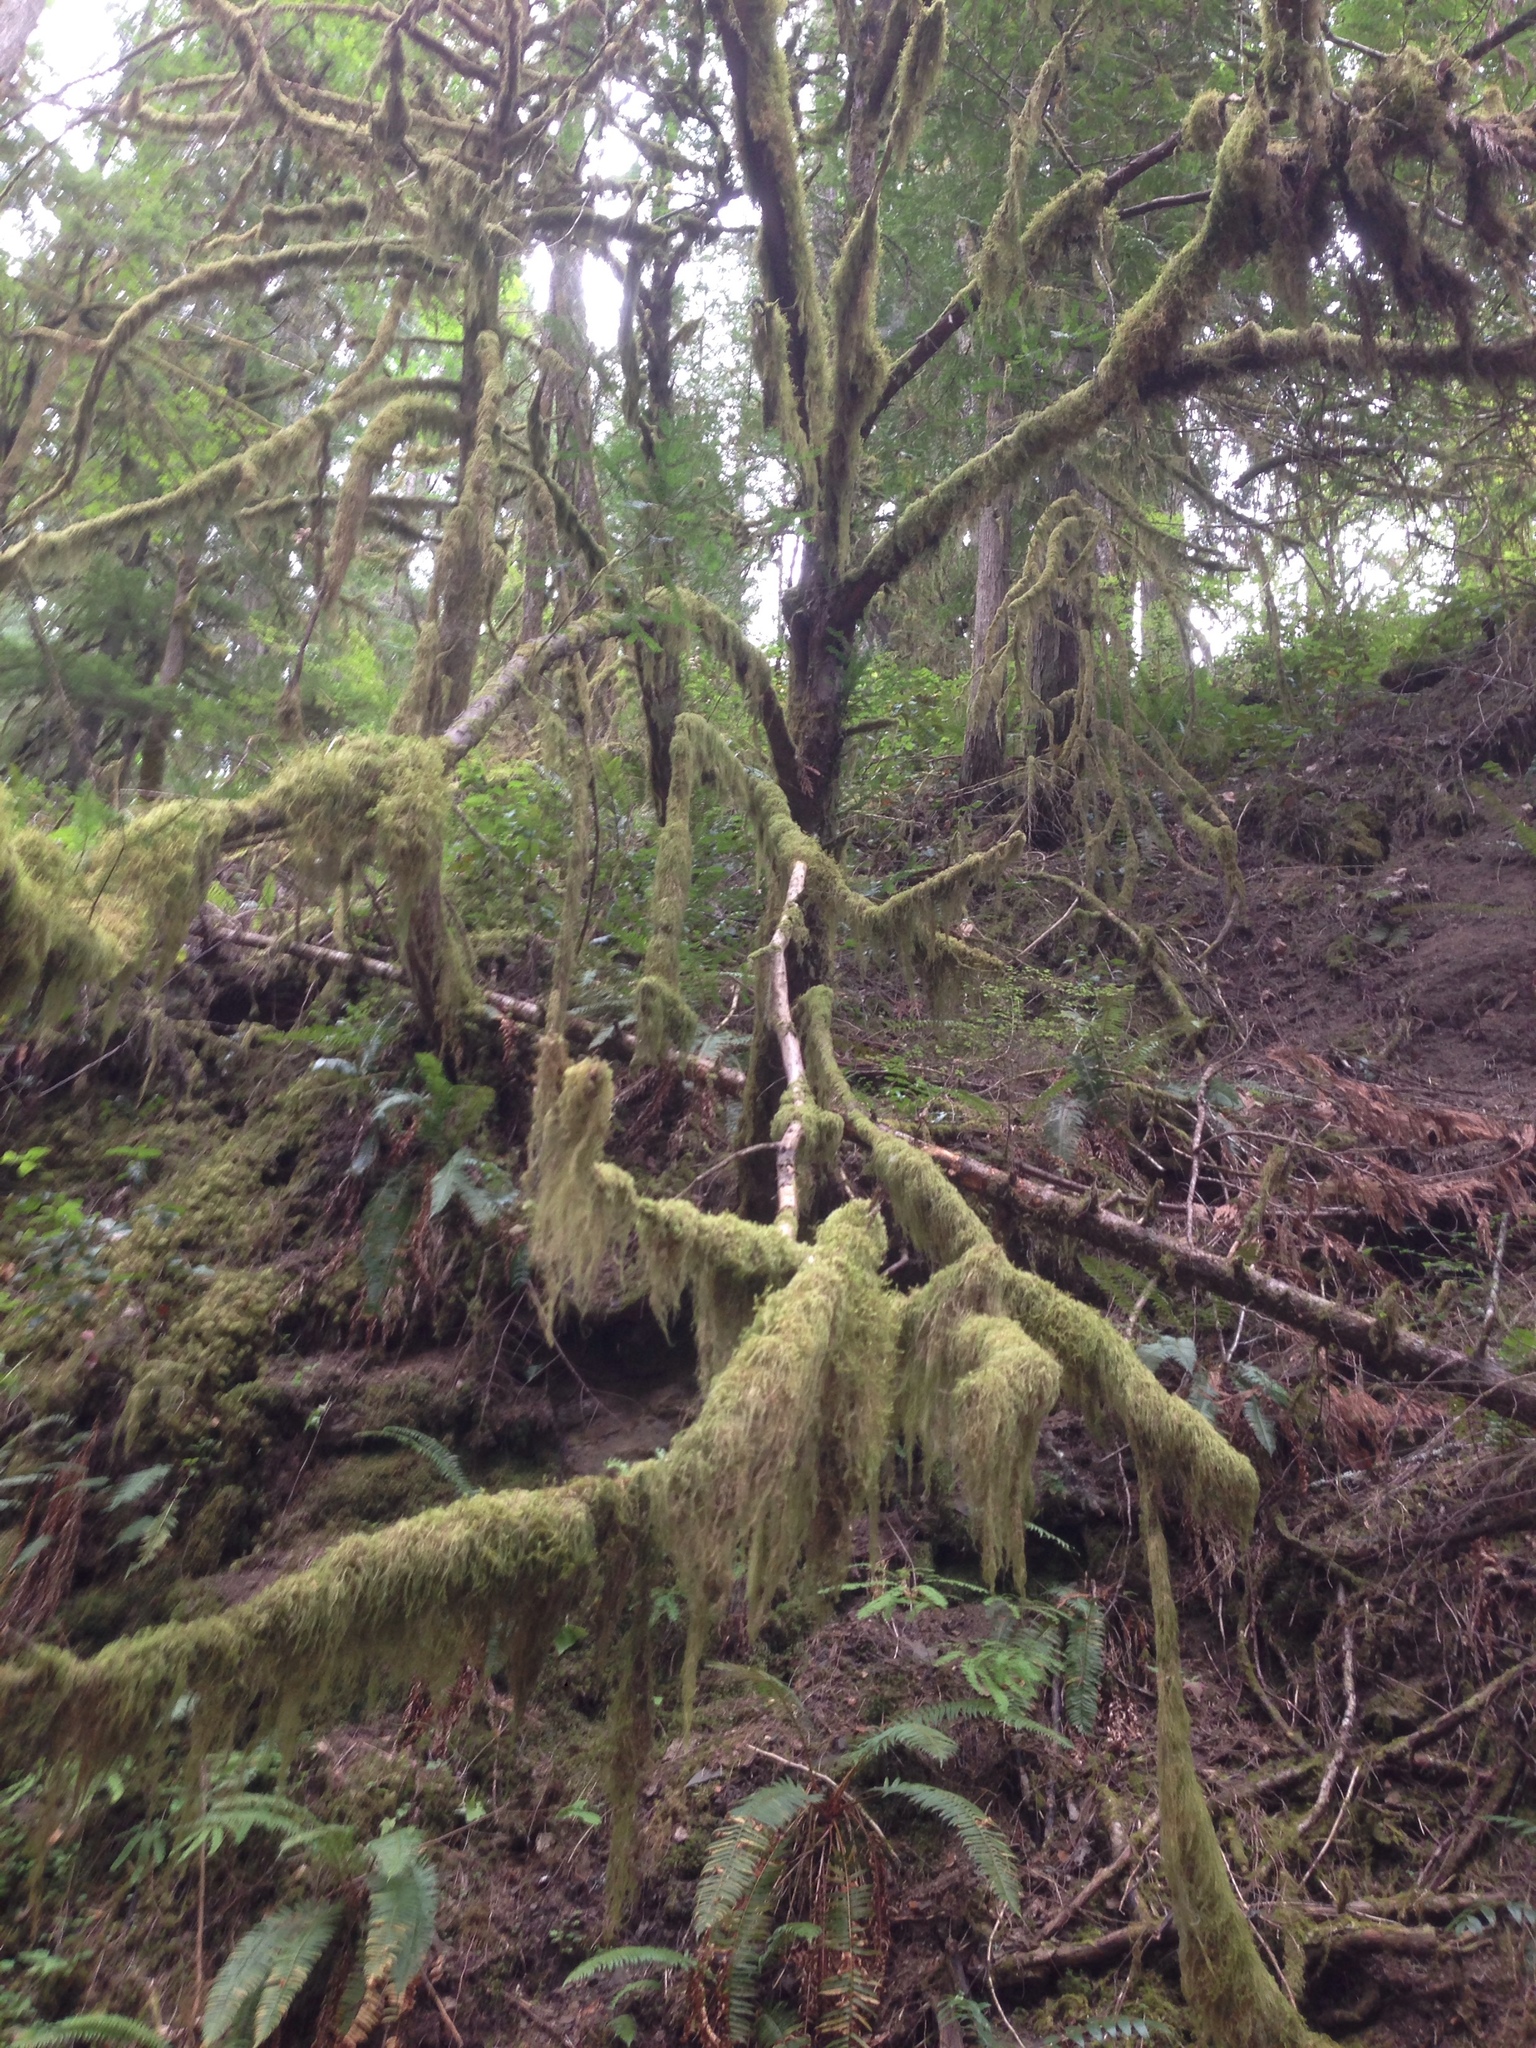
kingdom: Plantae
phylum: Tracheophyta
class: Pinopsida
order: Pinales
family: Taxaceae
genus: Taxus
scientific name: Taxus brevifolia
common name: Pacific yew
